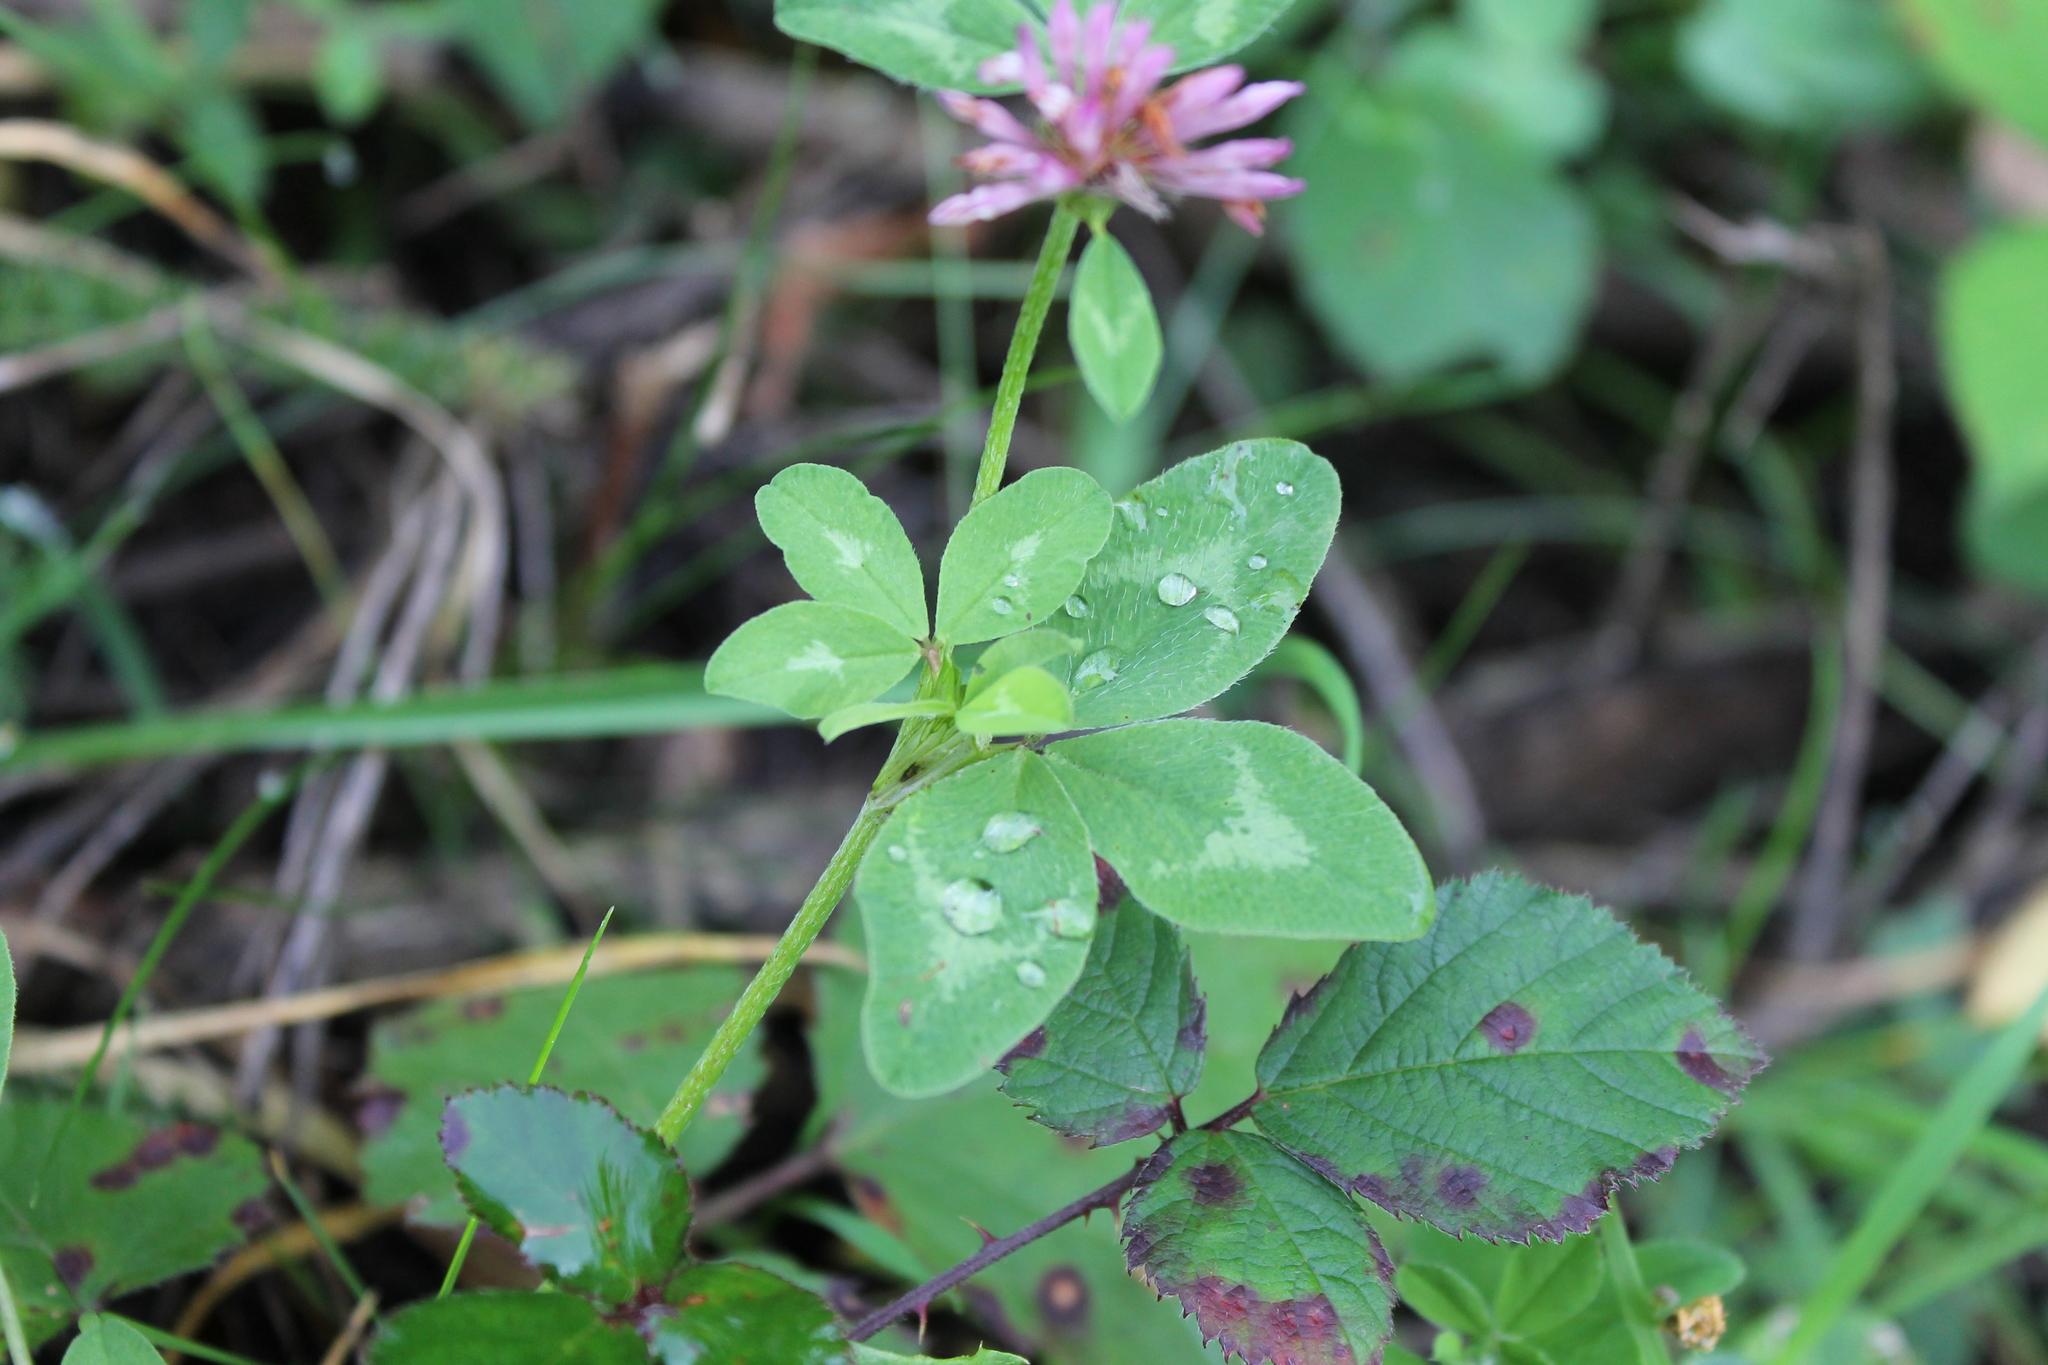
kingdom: Plantae
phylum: Tracheophyta
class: Magnoliopsida
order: Fabales
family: Fabaceae
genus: Trifolium
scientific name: Trifolium pratense
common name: Red clover
